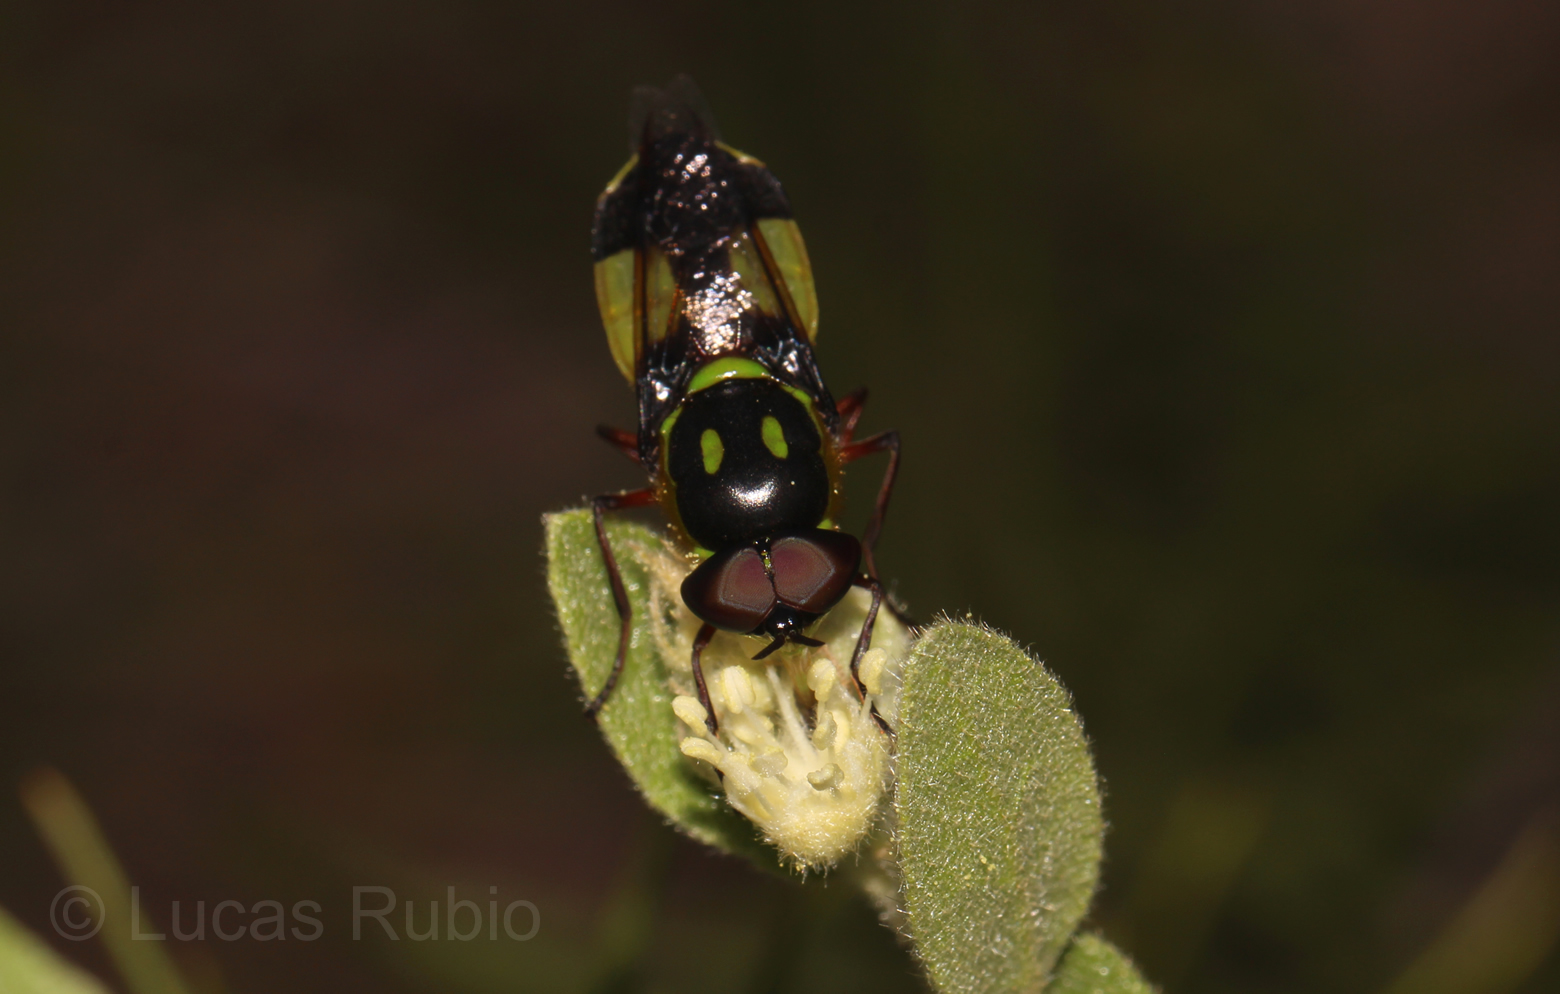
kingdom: Animalia
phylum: Arthropoda
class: Insecta
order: Diptera
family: Stratiomyidae
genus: Hedriodiscus
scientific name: Hedriodiscus pulcher
